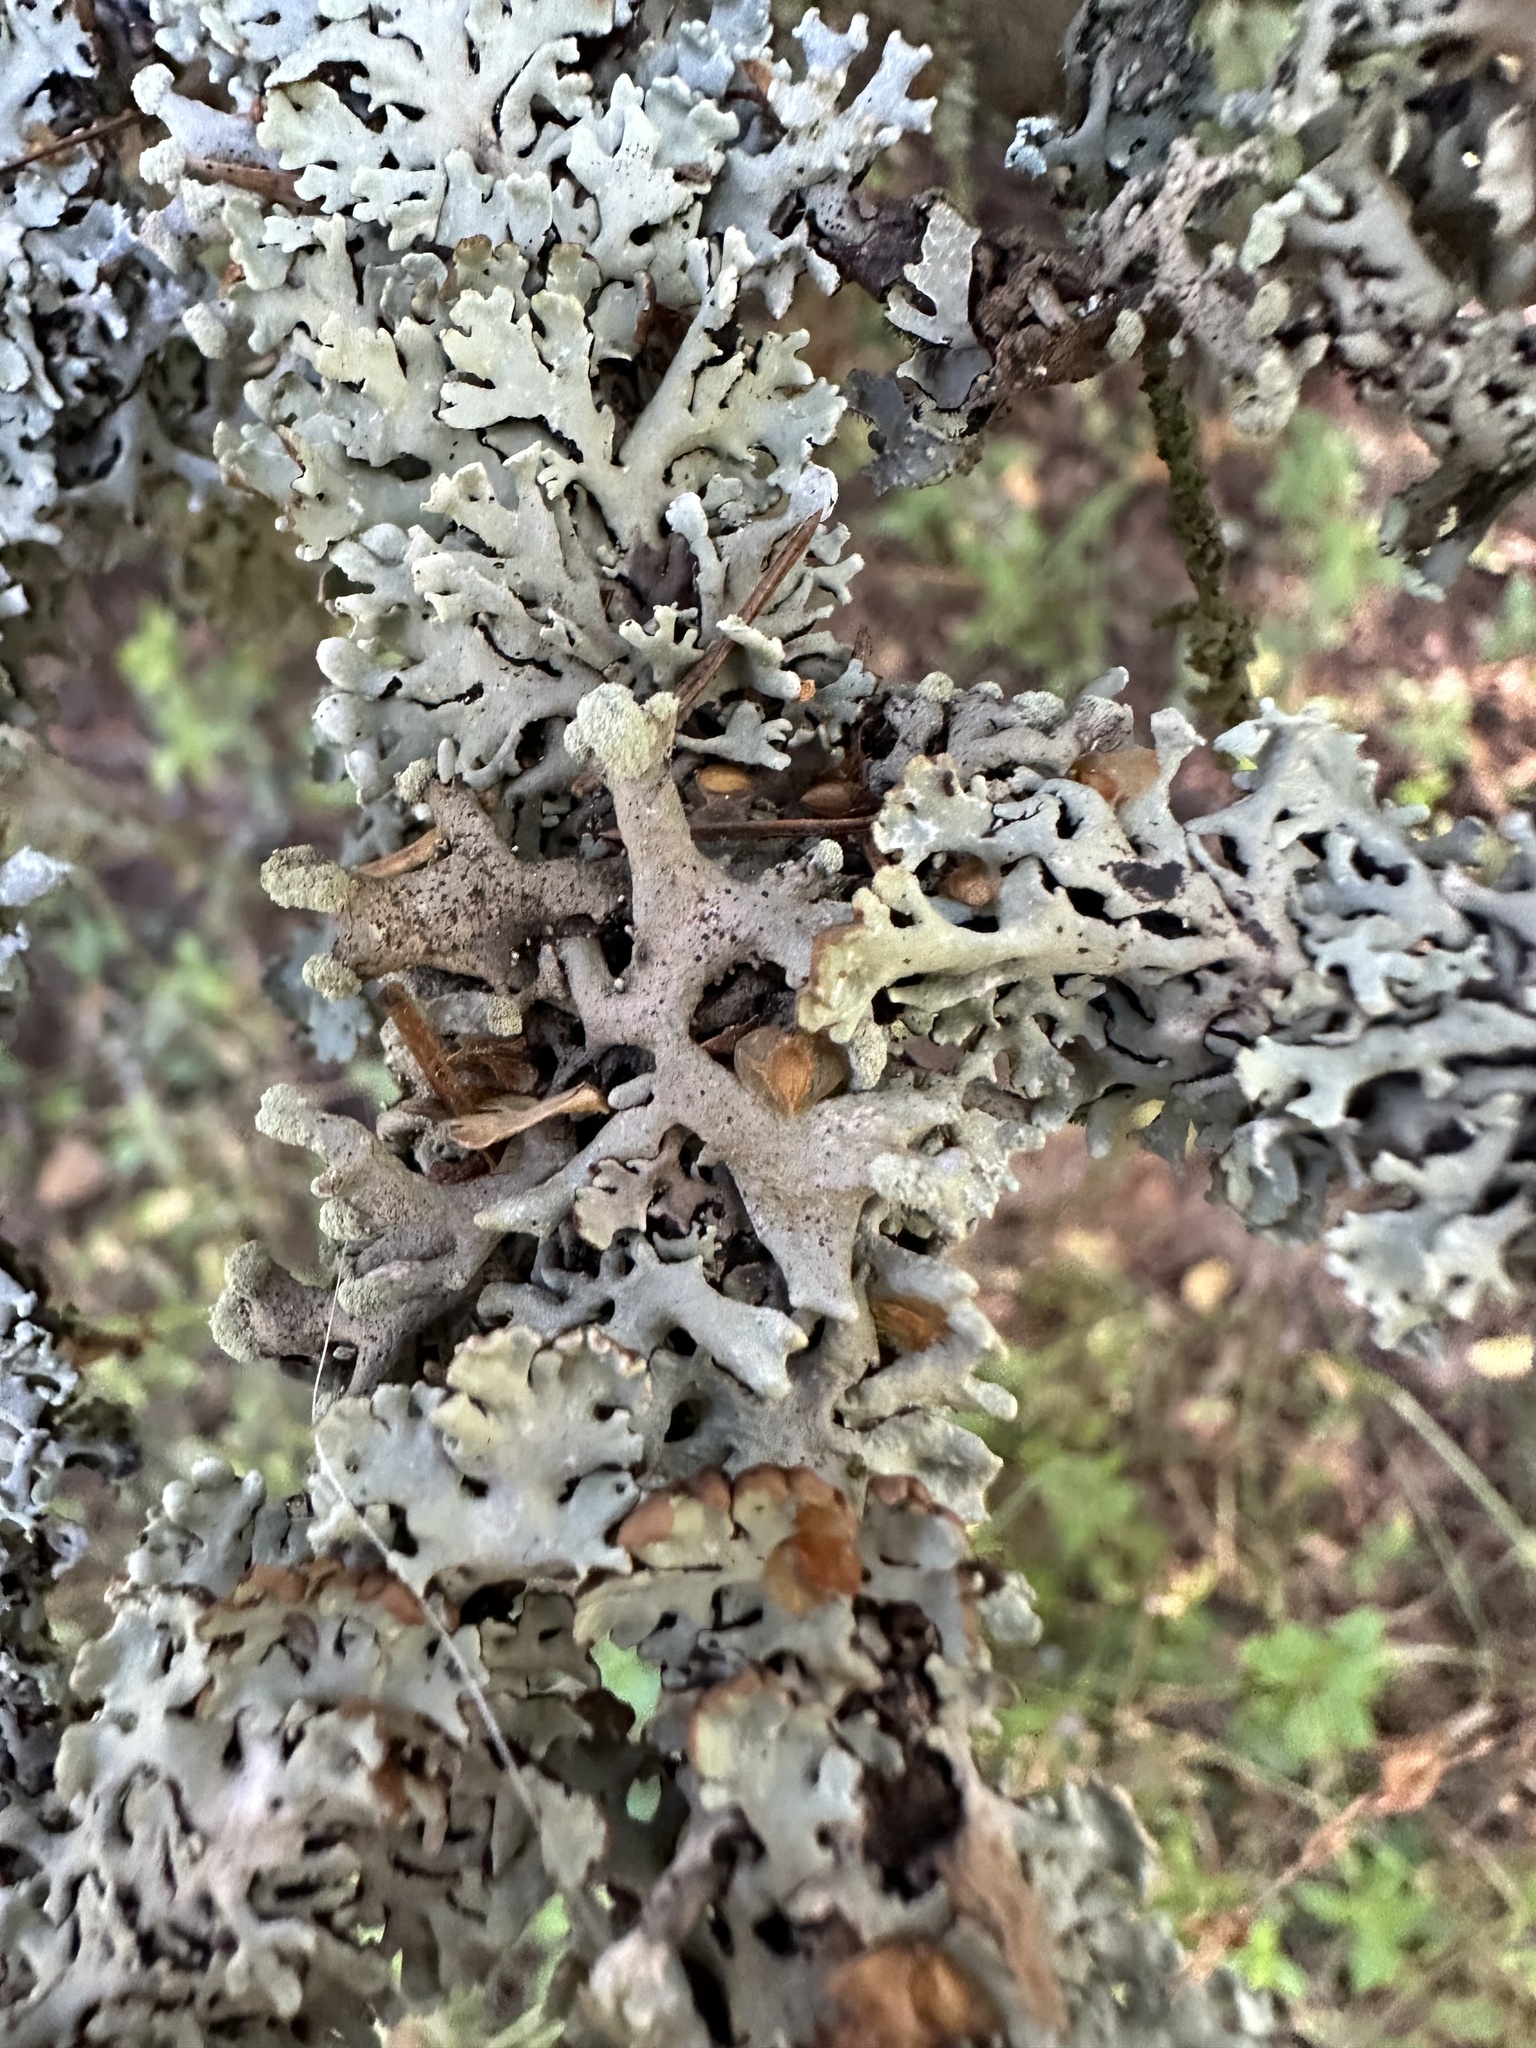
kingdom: Fungi
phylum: Ascomycota
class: Lecanoromycetes
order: Lecanorales
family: Parmeliaceae
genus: Hypogymnia
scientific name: Hypogymnia physodes
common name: Dark crottle
